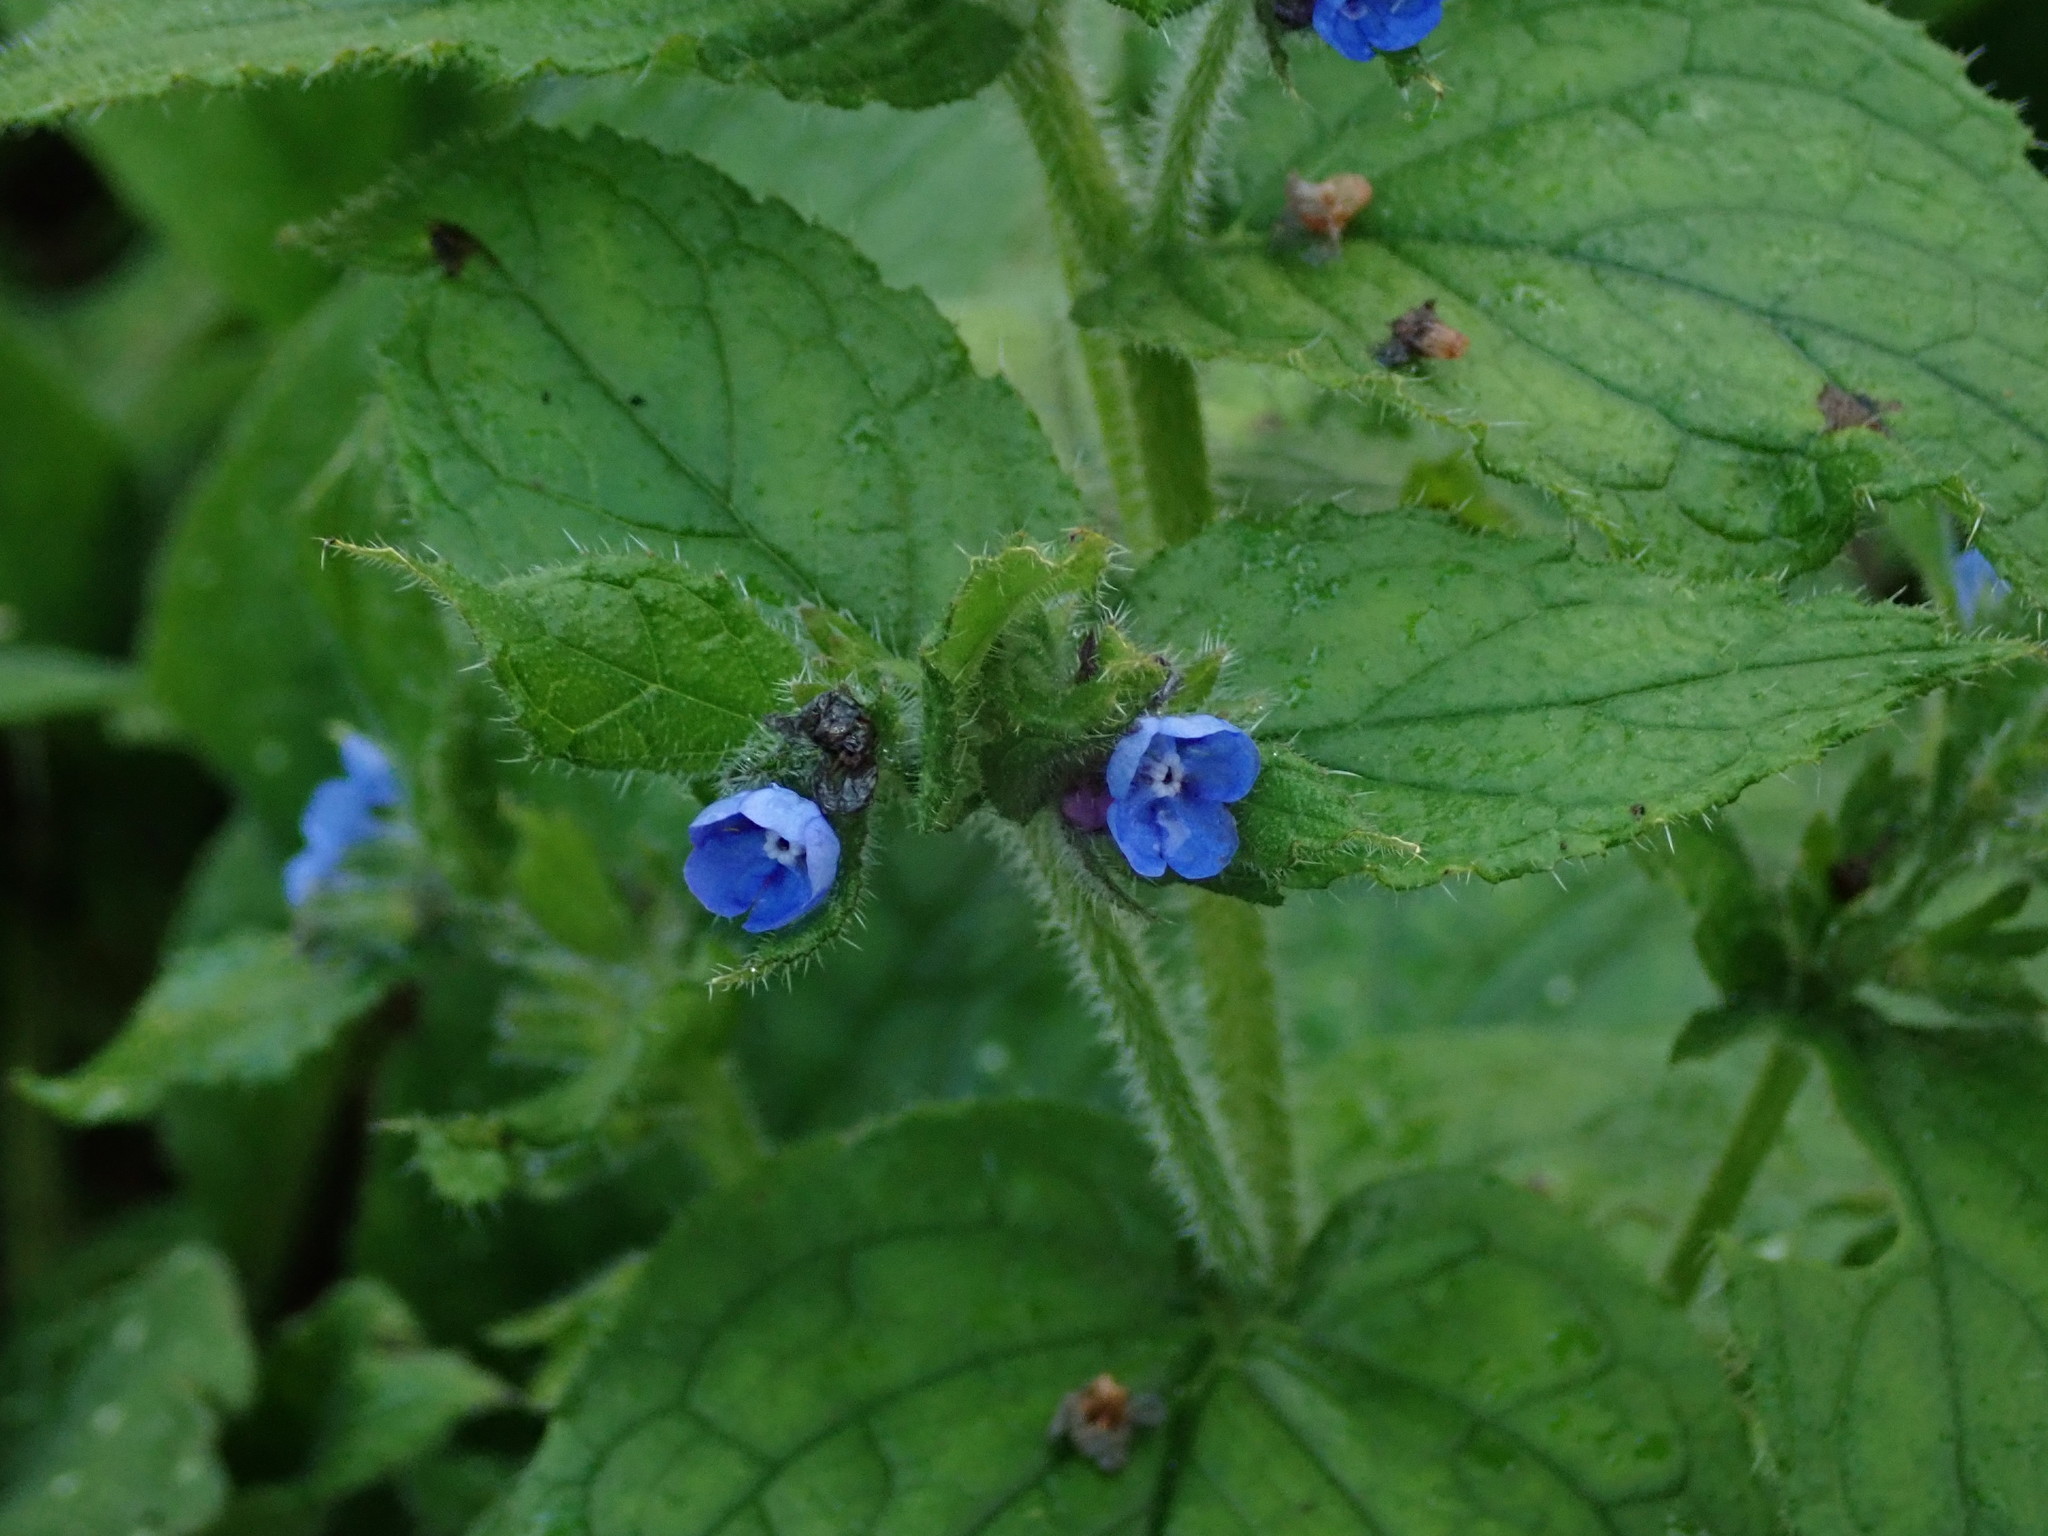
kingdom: Plantae
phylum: Tracheophyta
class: Magnoliopsida
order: Boraginales
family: Boraginaceae
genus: Pentaglottis
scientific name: Pentaglottis sempervirens
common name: Green alkanet
